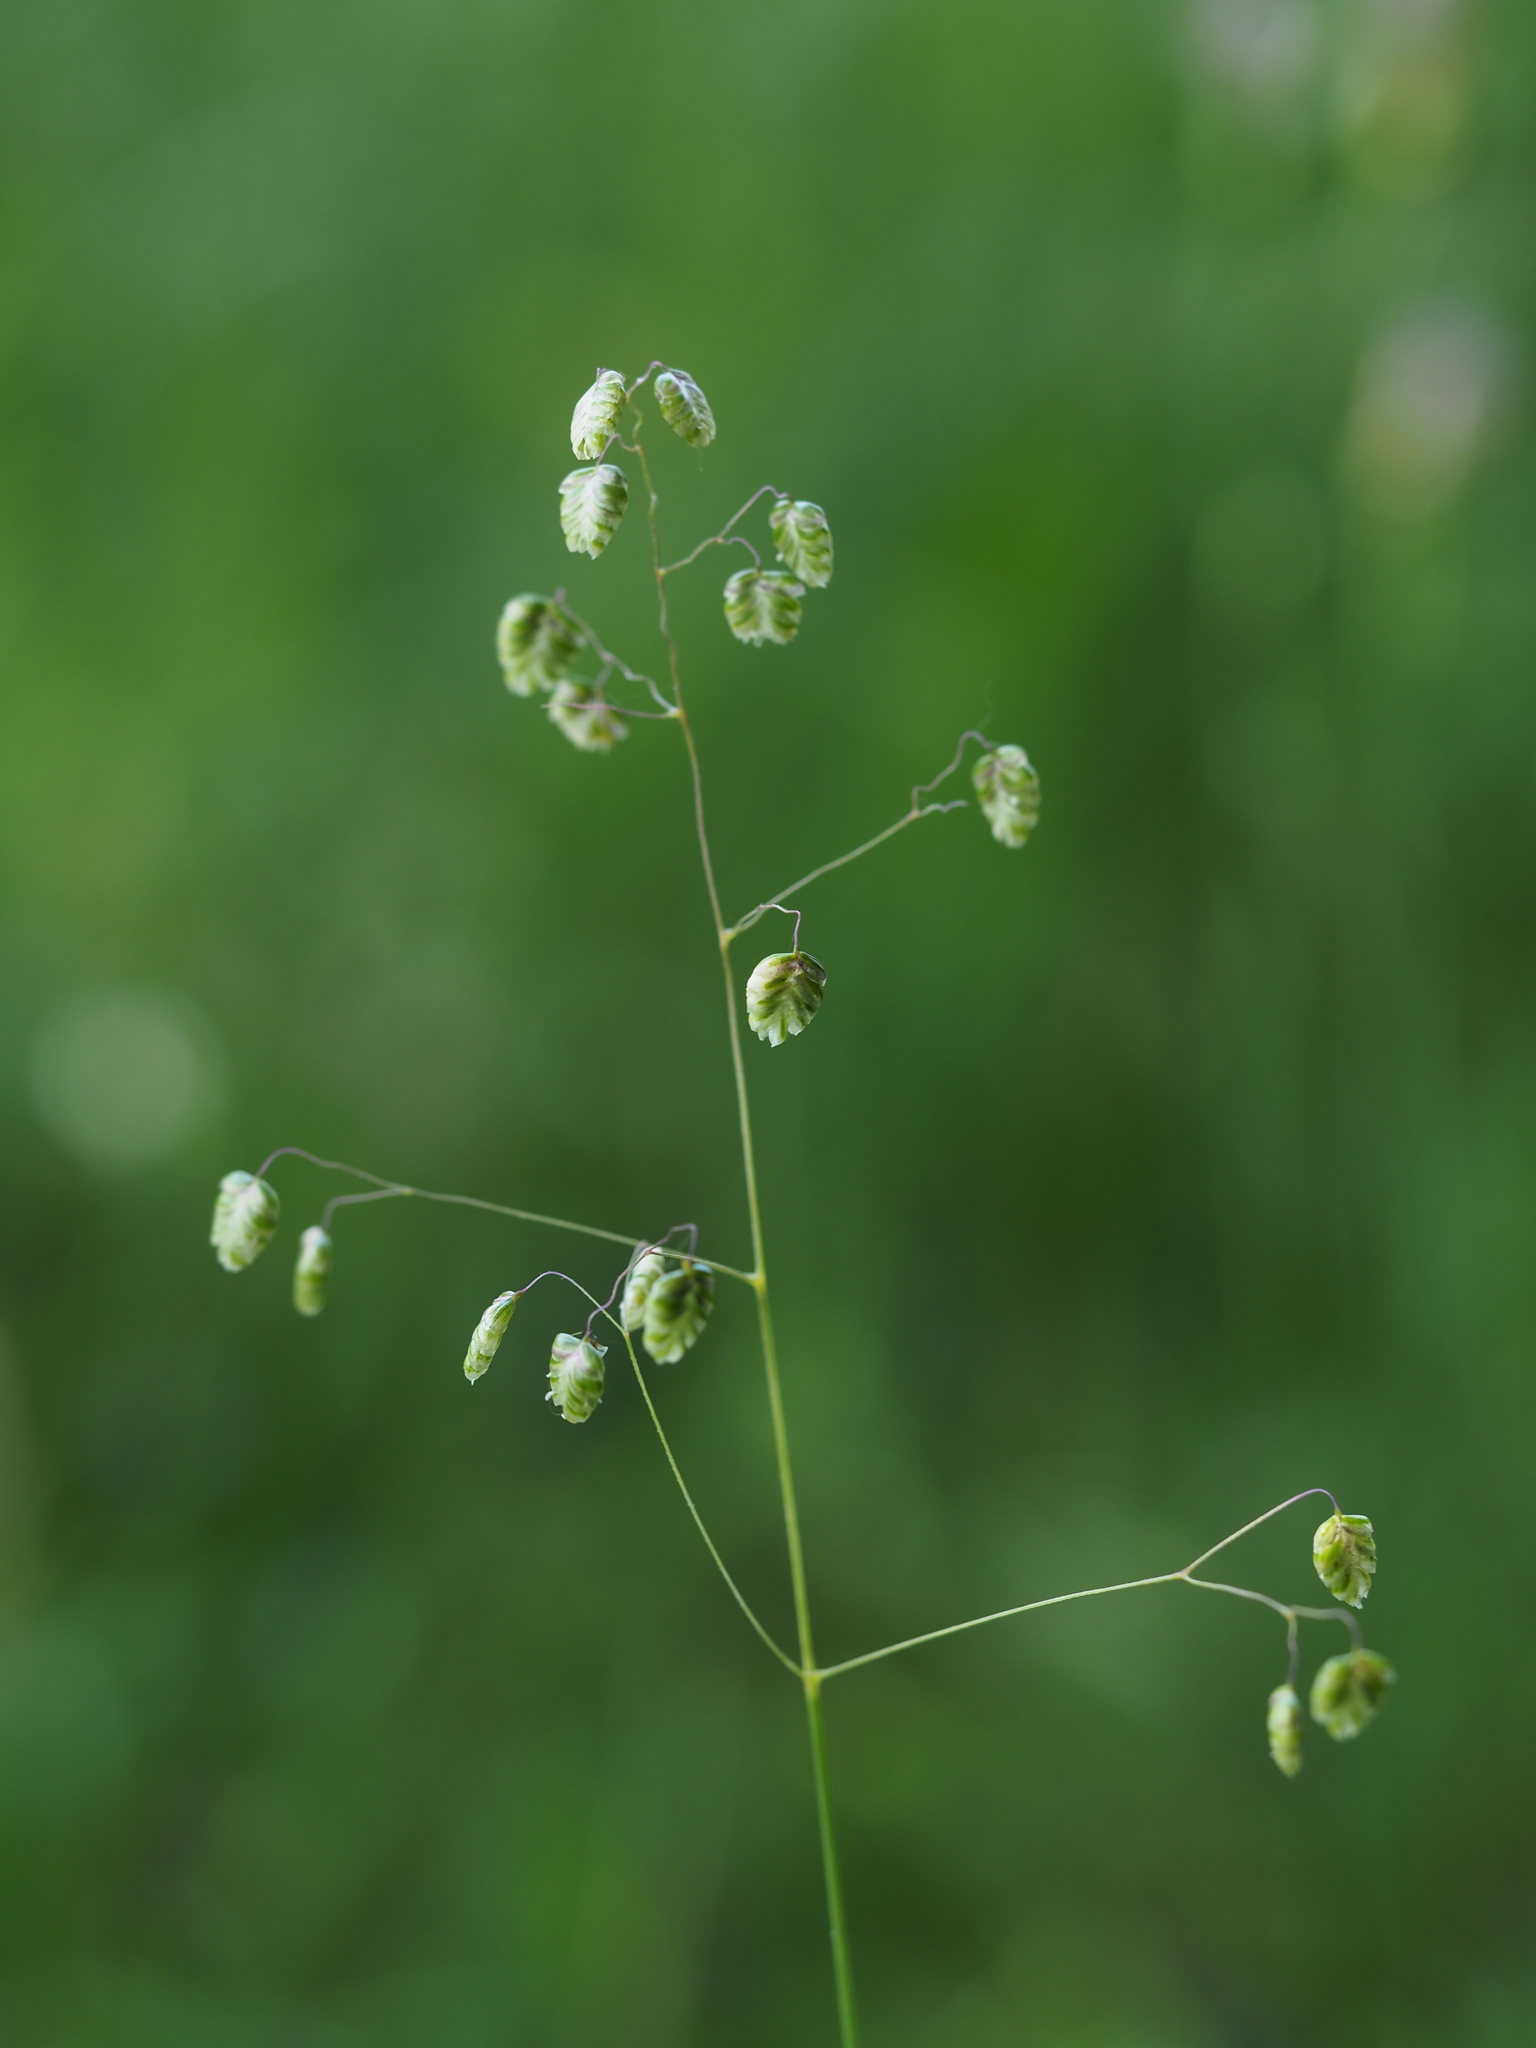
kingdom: Plantae
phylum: Tracheophyta
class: Liliopsida
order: Poales
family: Poaceae
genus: Briza
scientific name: Briza media
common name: Quaking grass
